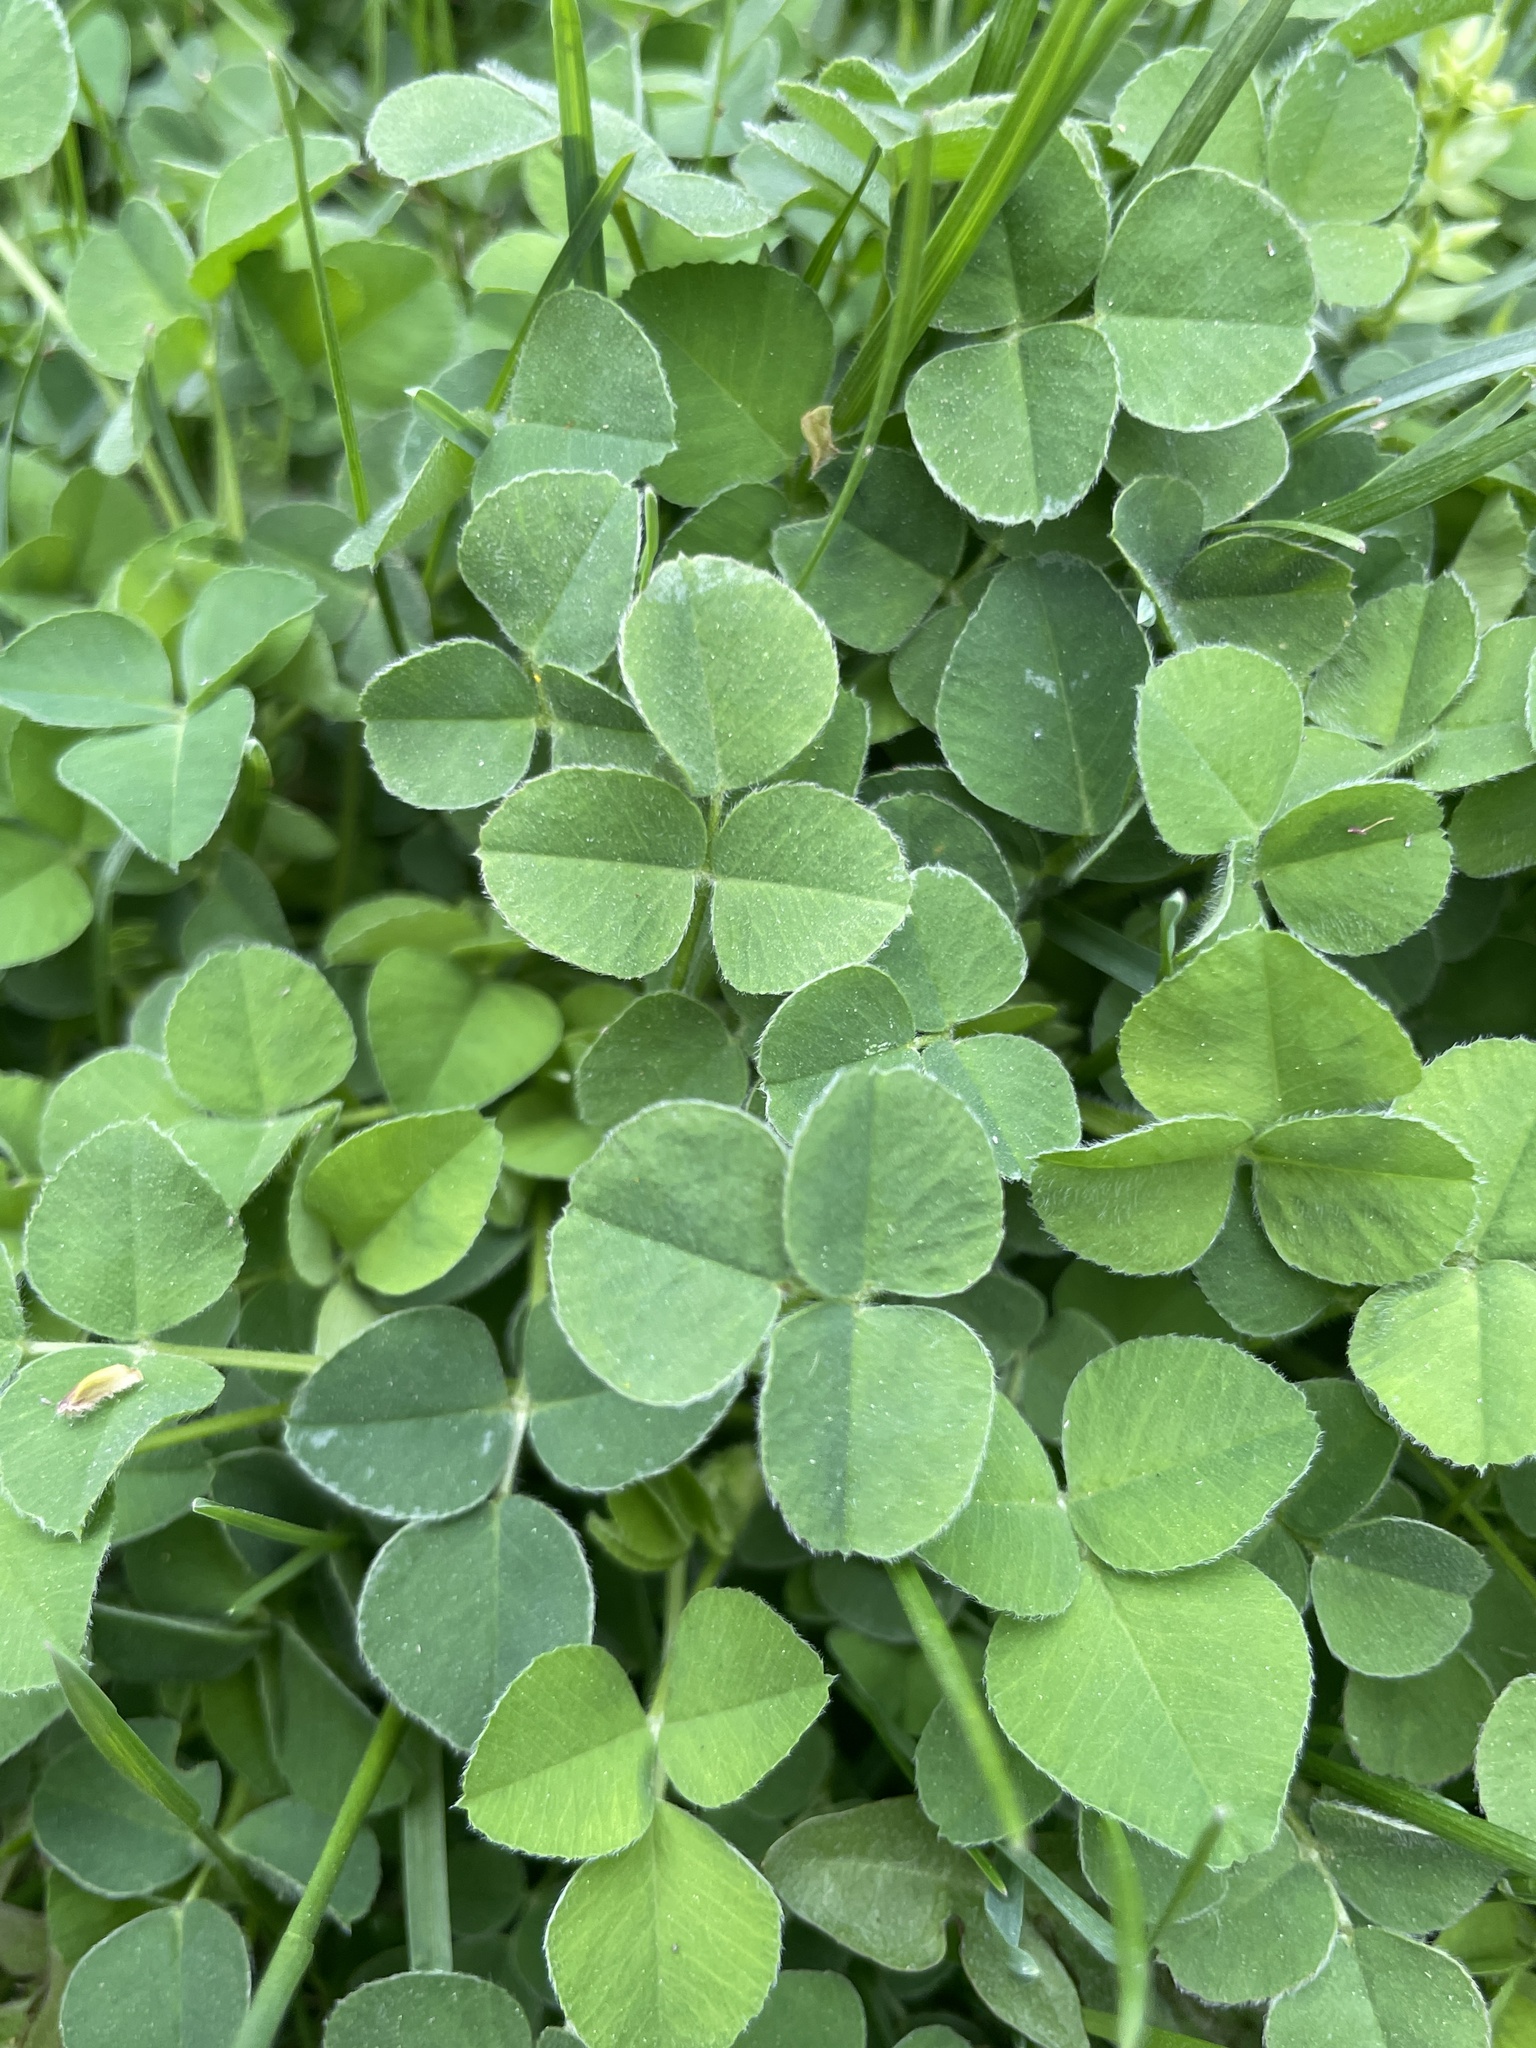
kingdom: Plantae
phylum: Tracheophyta
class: Magnoliopsida
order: Fabales
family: Fabaceae
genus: Medicago
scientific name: Medicago lupulina
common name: Black medick
